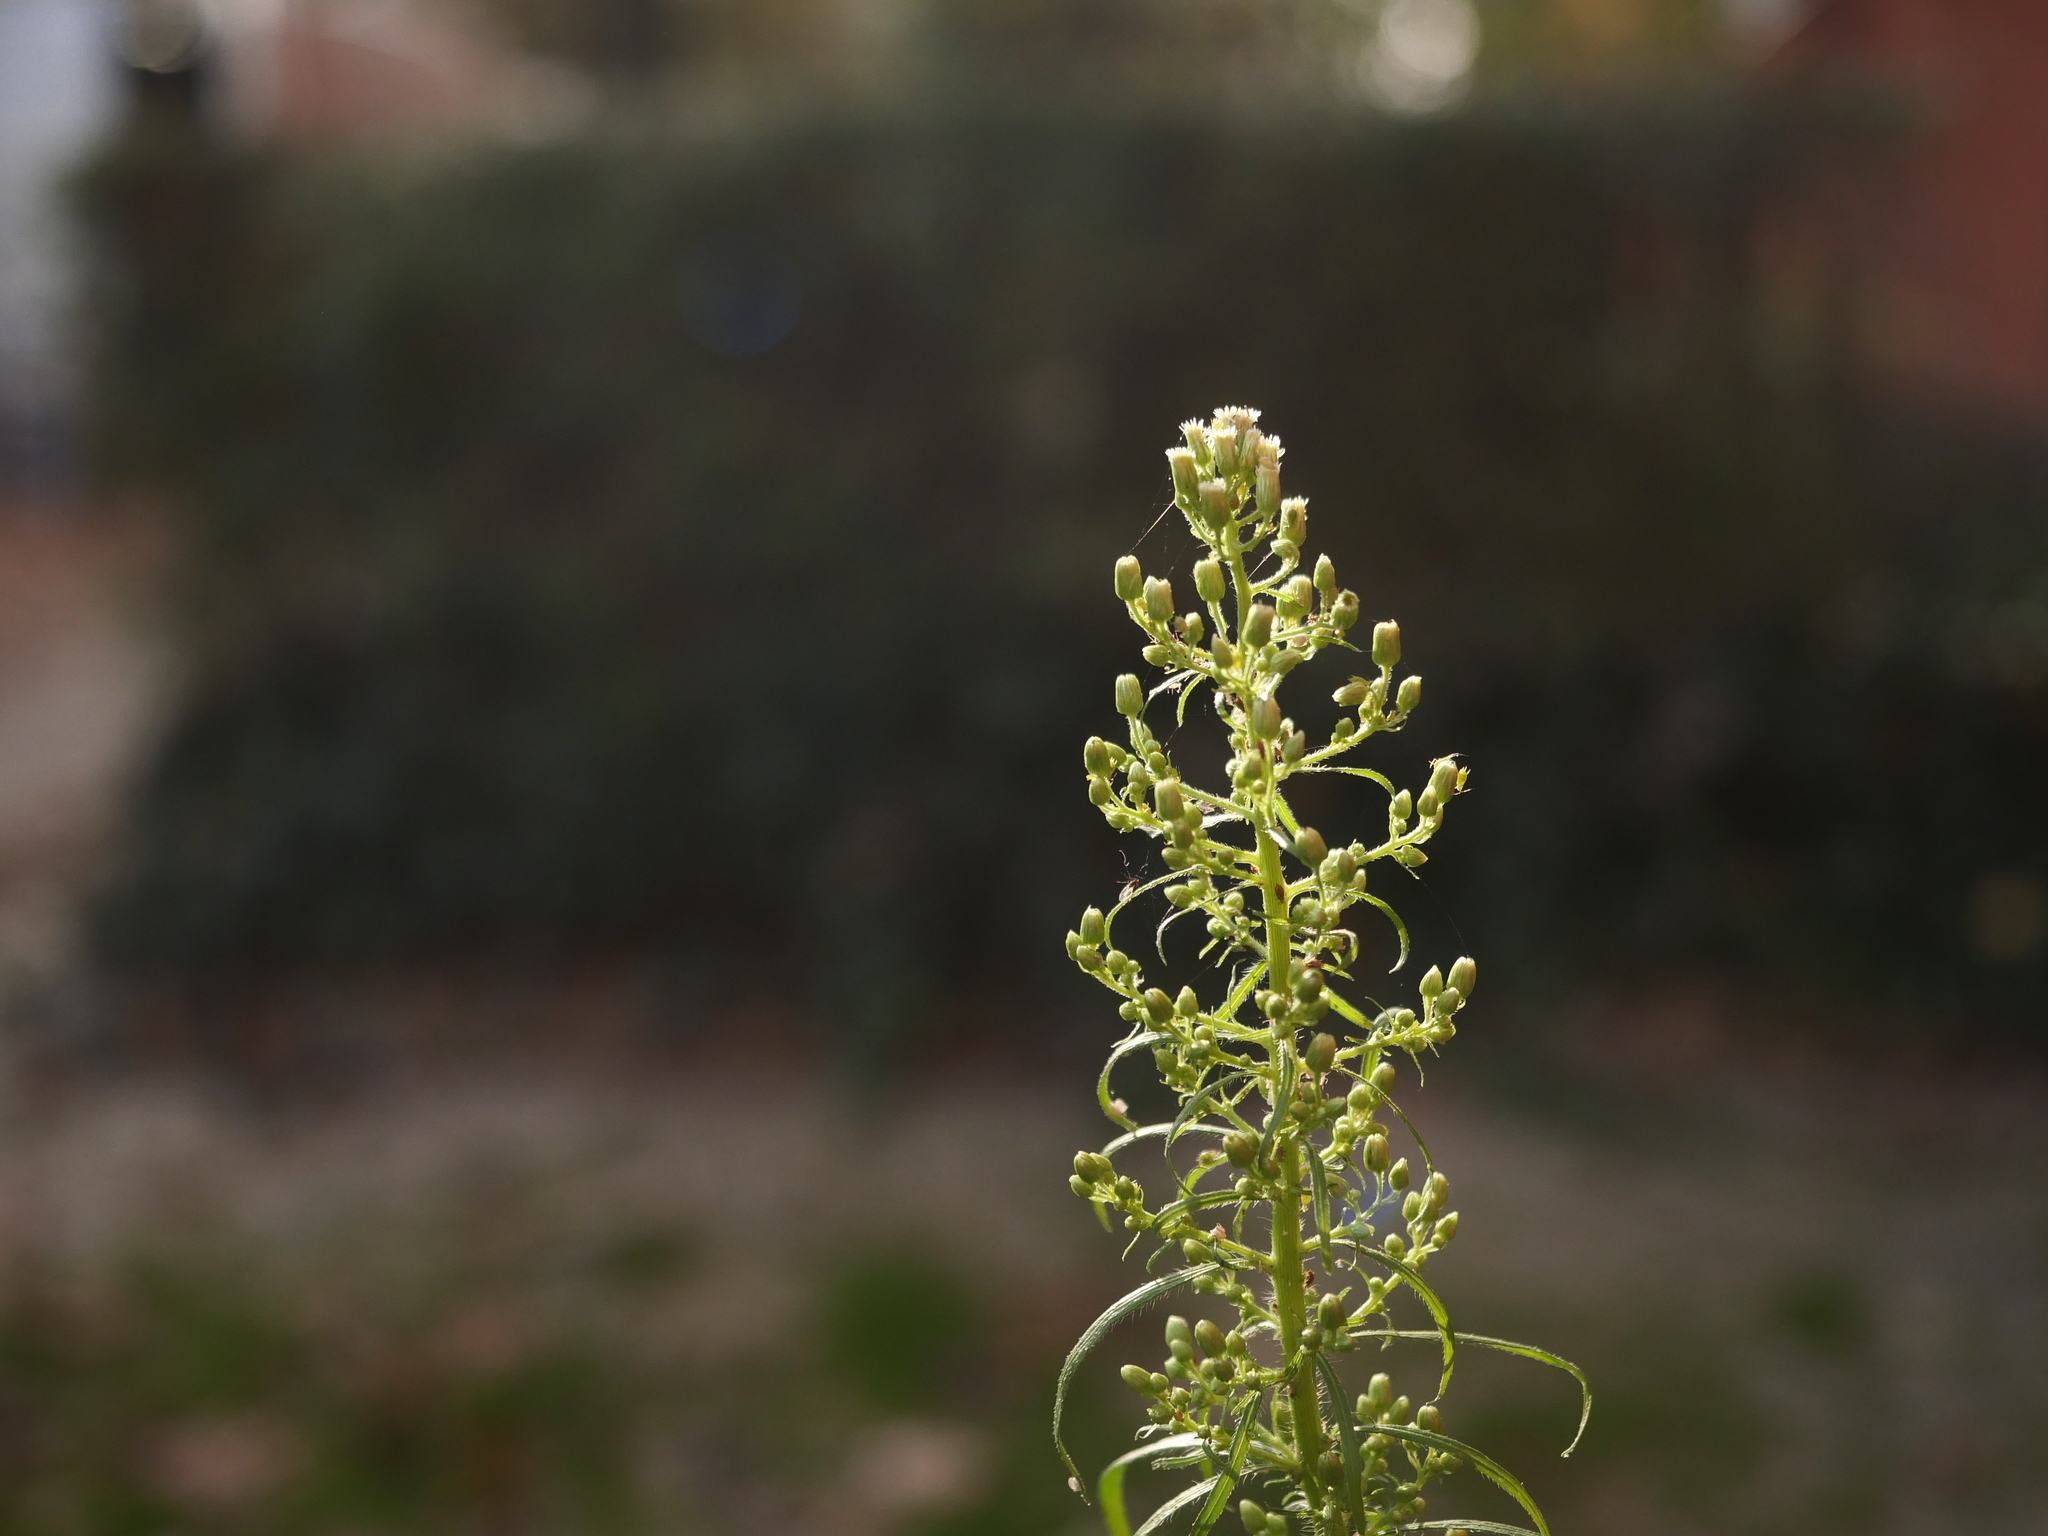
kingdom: Plantae
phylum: Tracheophyta
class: Magnoliopsida
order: Asterales
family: Asteraceae
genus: Erigeron
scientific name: Erigeron canadensis
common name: Canadian fleabane
